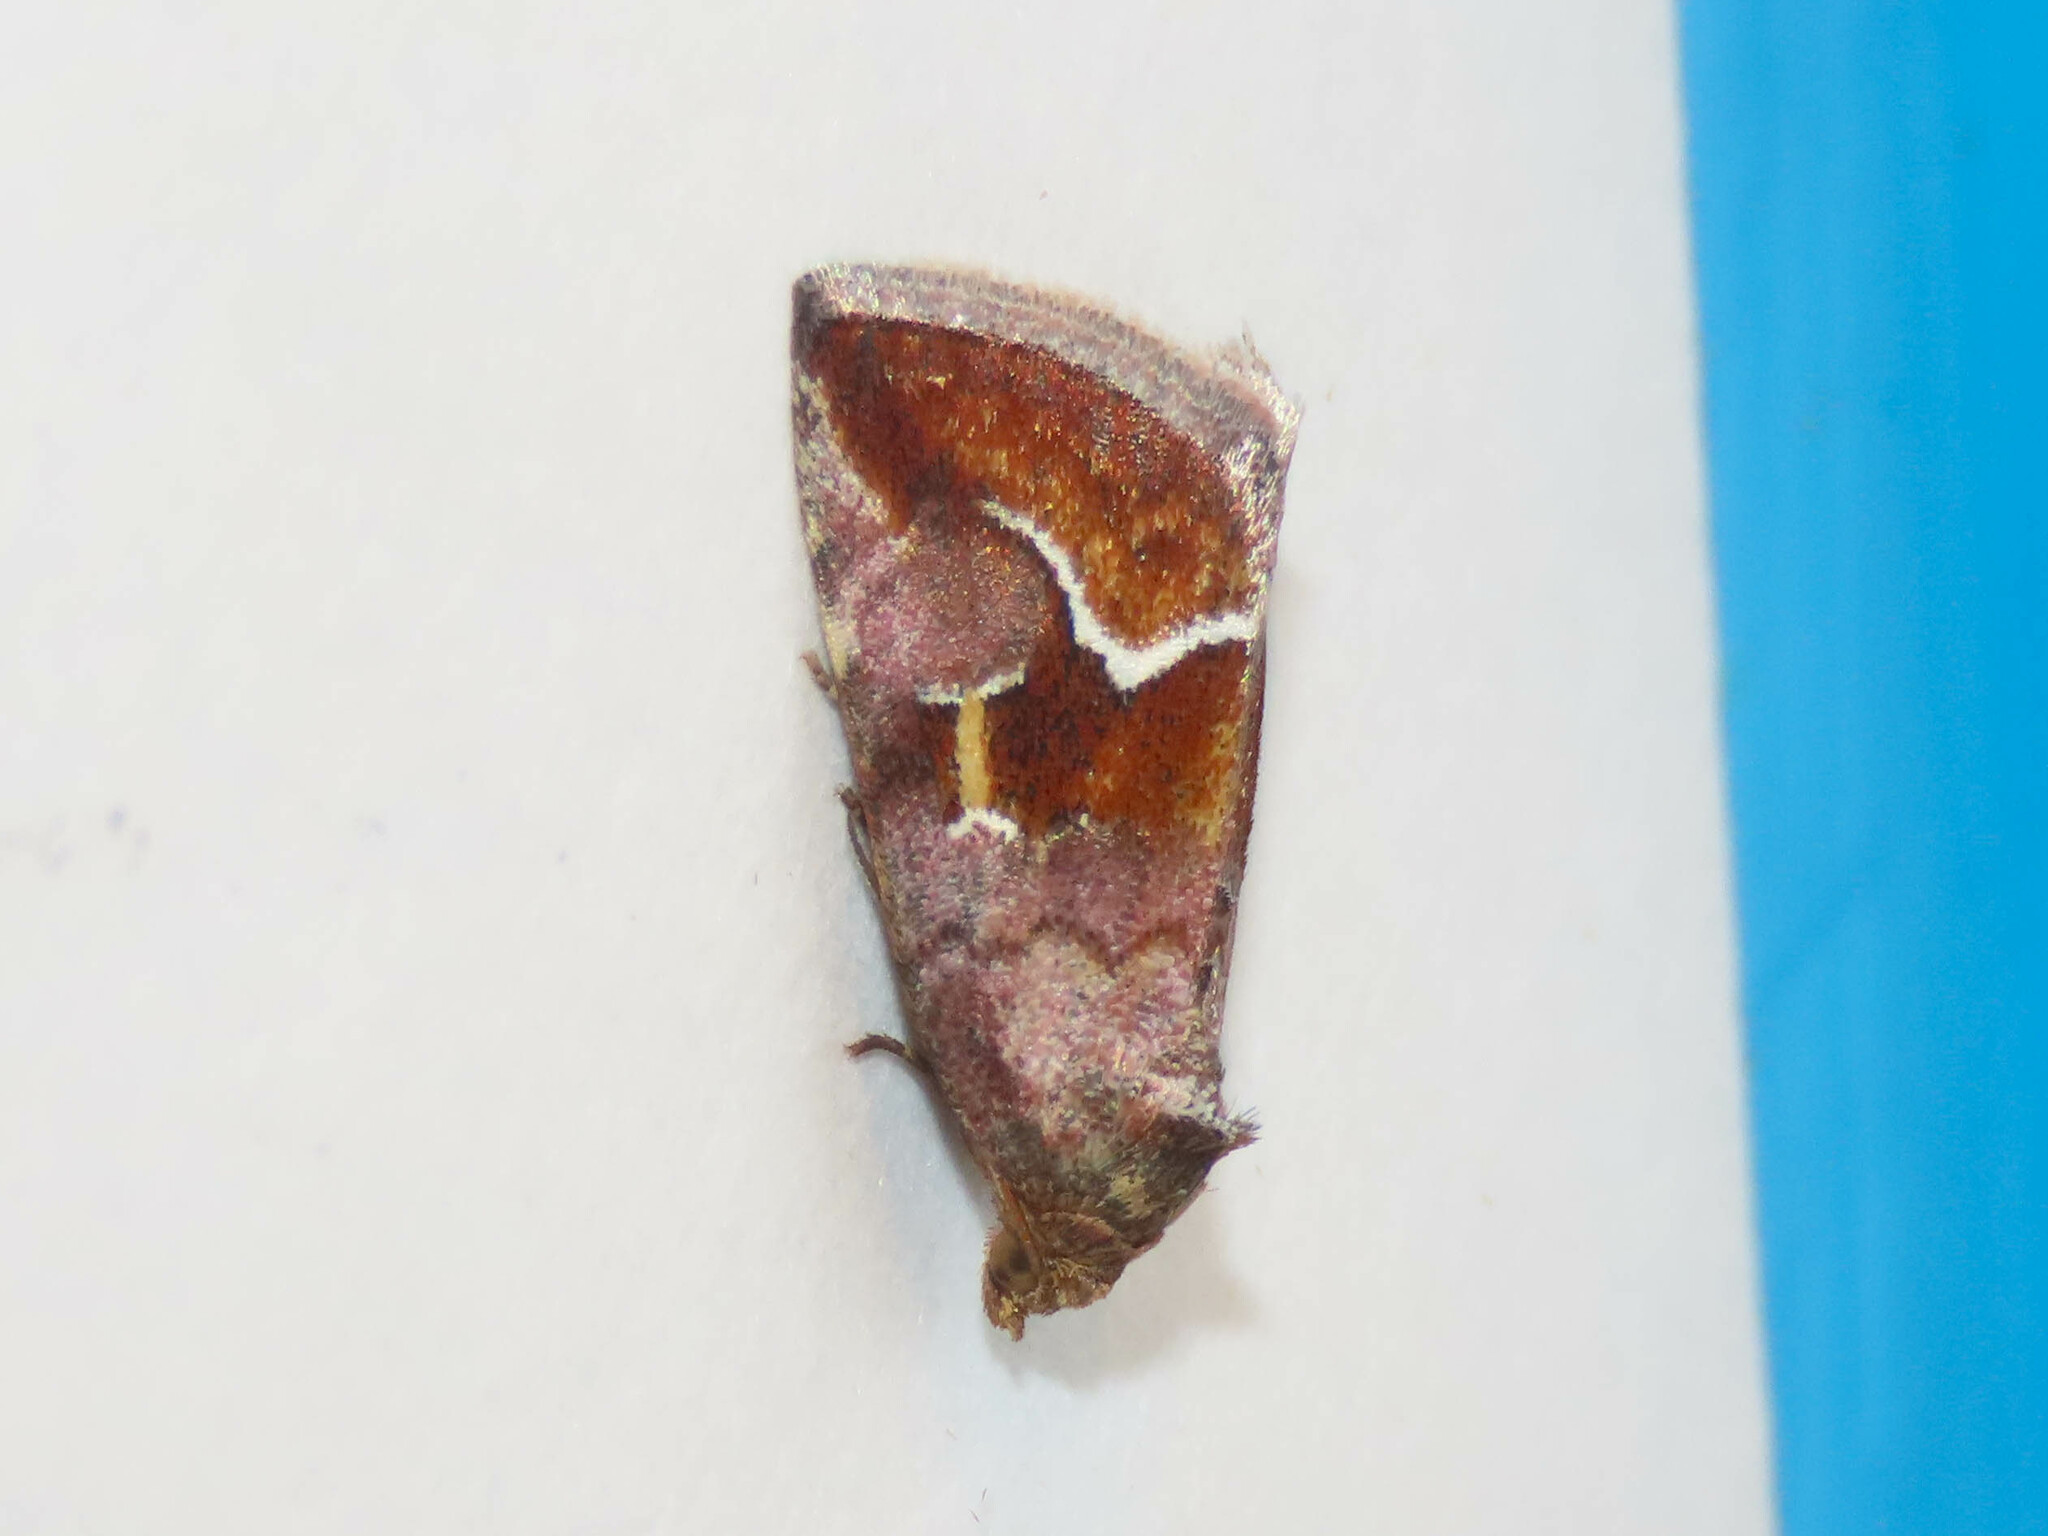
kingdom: Animalia
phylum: Arthropoda
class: Insecta
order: Lepidoptera
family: Noctuidae
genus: Deltote
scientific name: Deltote bellicula
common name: Bog glyph
